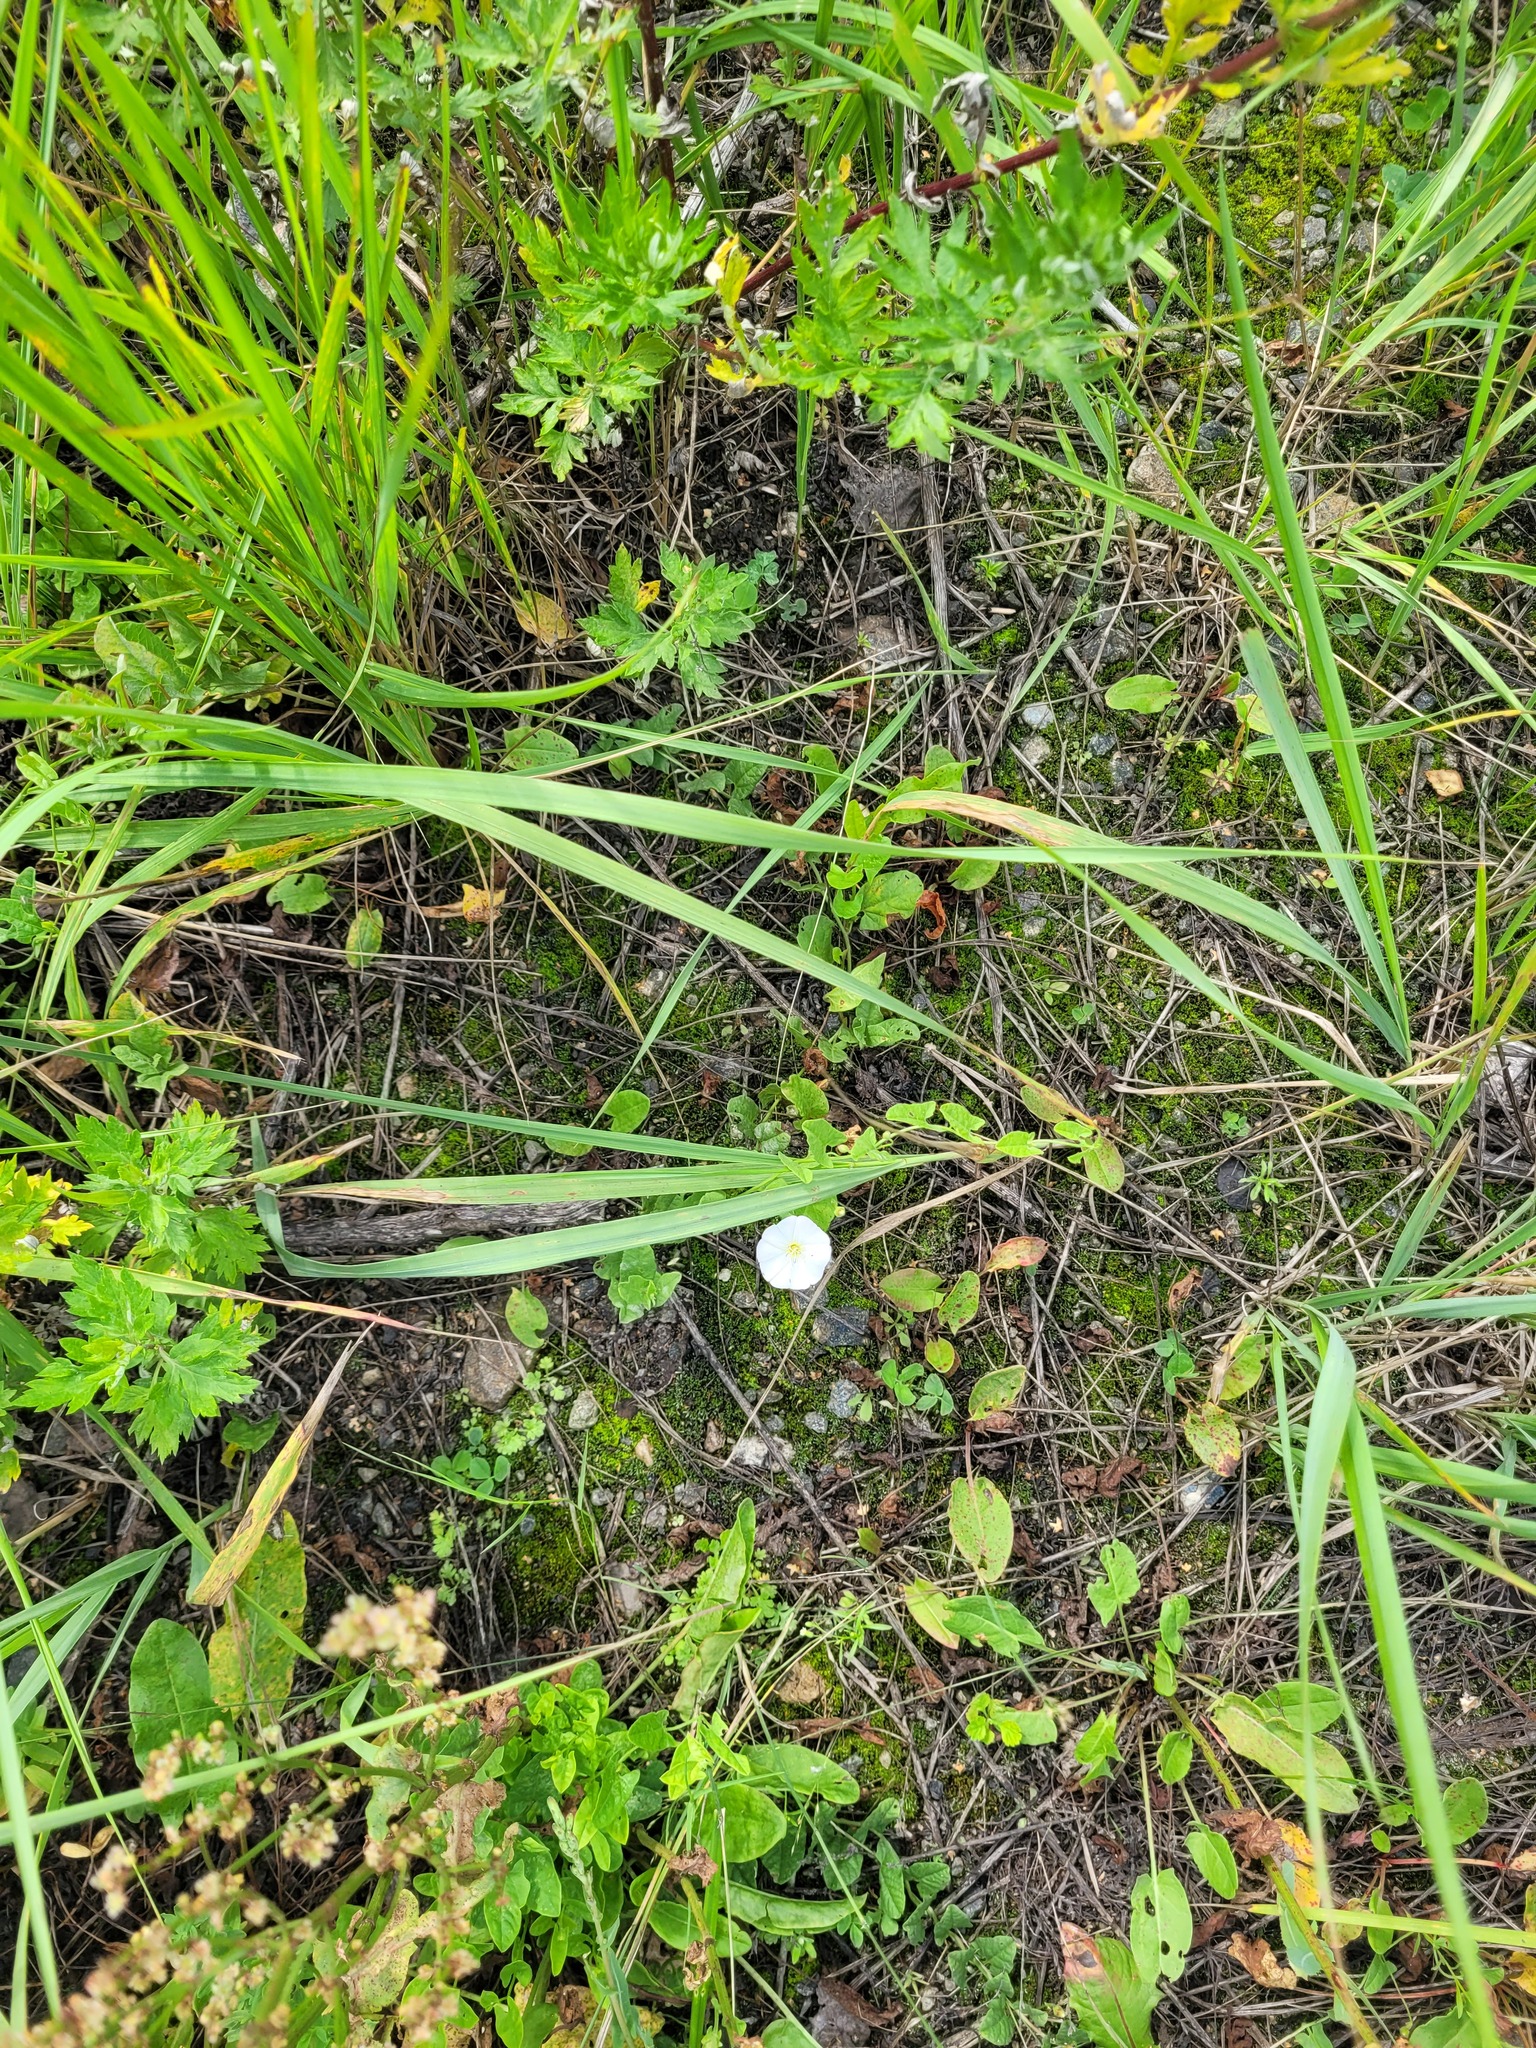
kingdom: Plantae
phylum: Tracheophyta
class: Magnoliopsida
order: Solanales
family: Convolvulaceae
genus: Convolvulus
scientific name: Convolvulus arvensis
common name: Field bindweed
